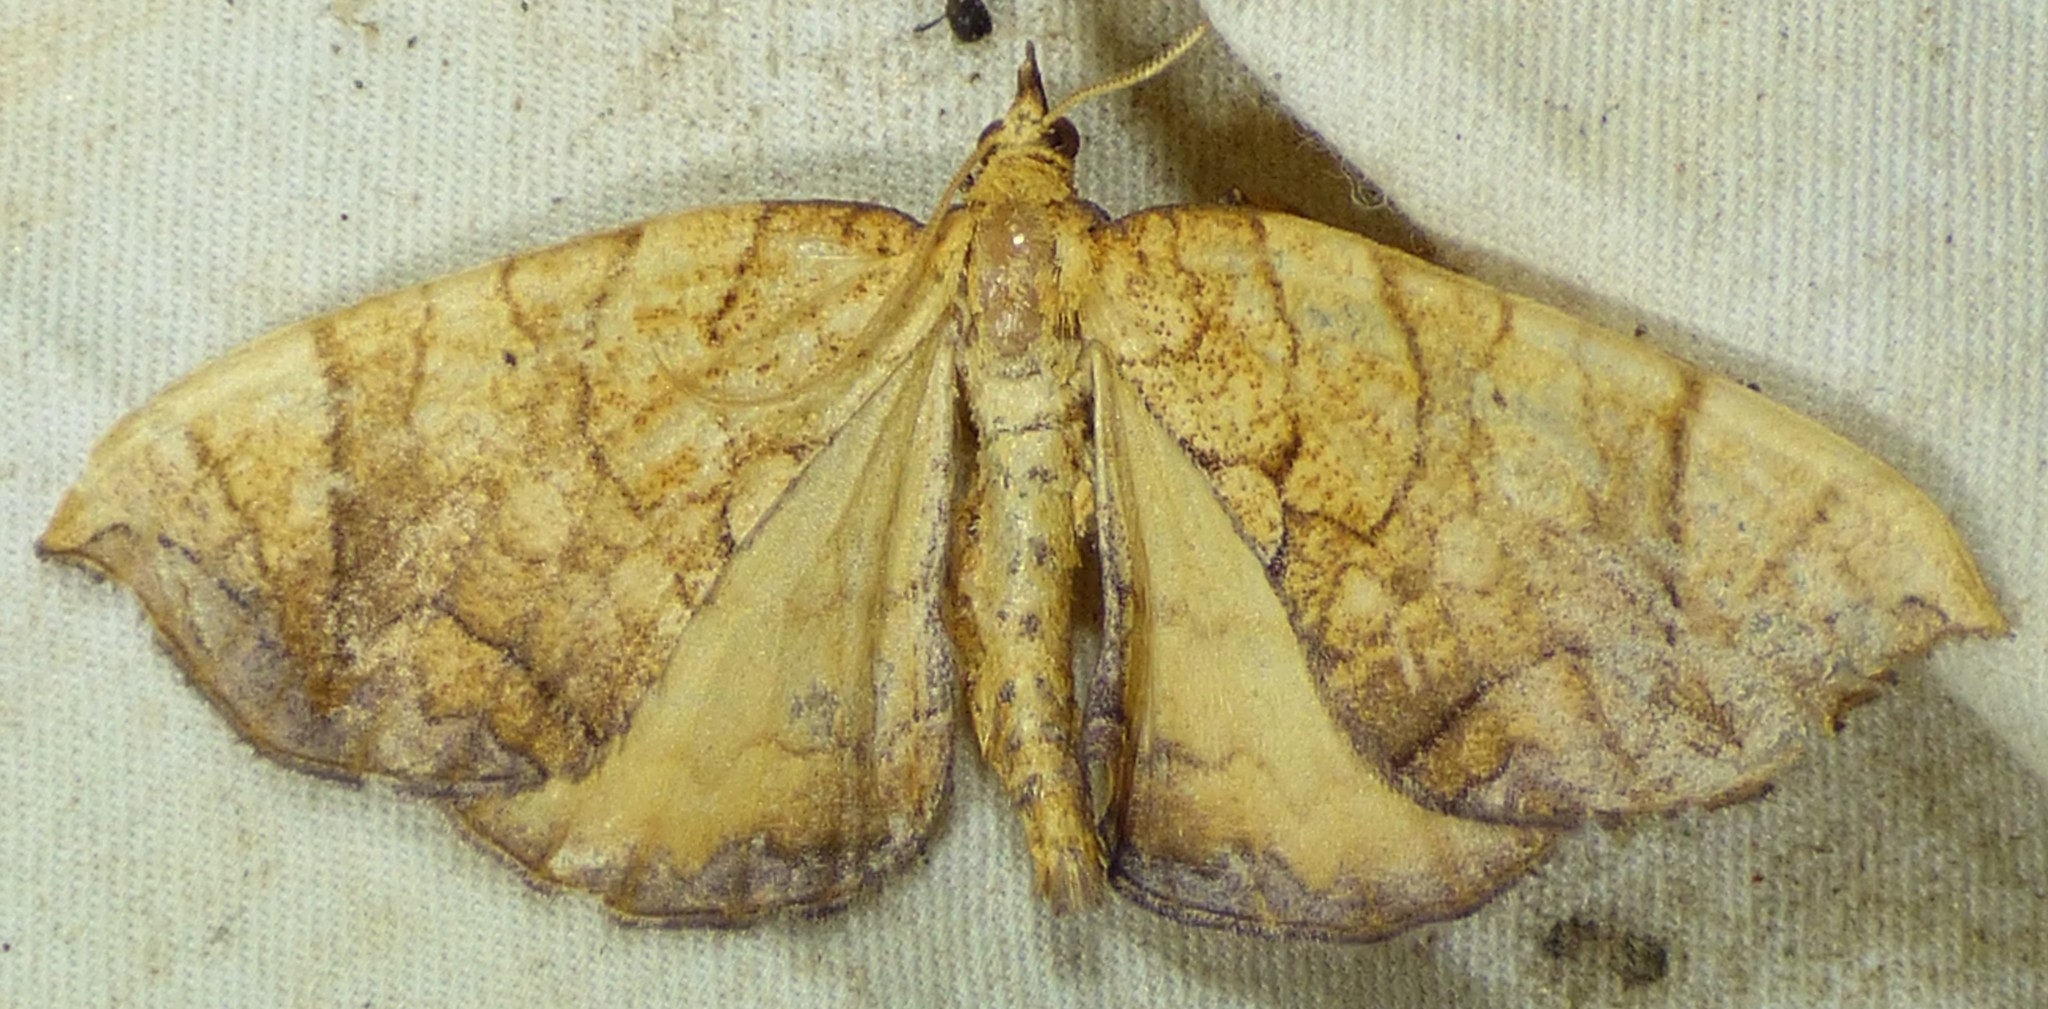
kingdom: Animalia
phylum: Arthropoda
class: Insecta
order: Lepidoptera
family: Geometridae
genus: Eulithis
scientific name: Eulithis
